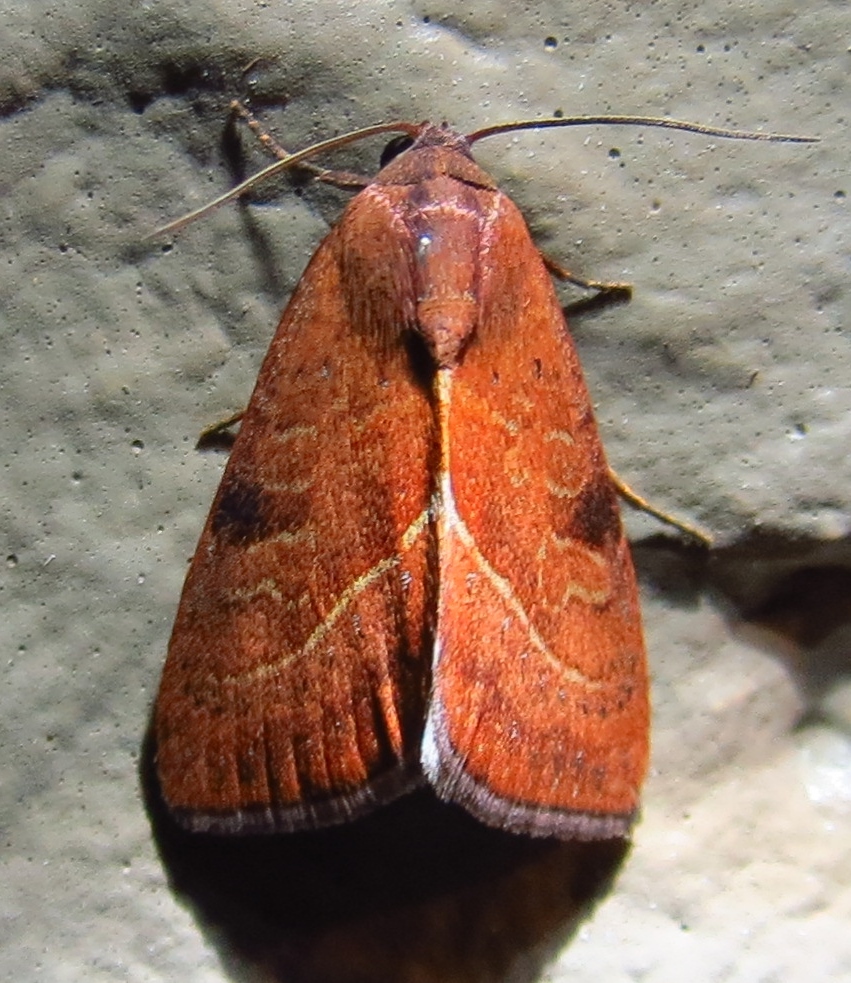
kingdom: Animalia
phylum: Arthropoda
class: Insecta
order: Lepidoptera
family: Noctuidae
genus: Galgula
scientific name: Galgula partita
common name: Wedgeling
